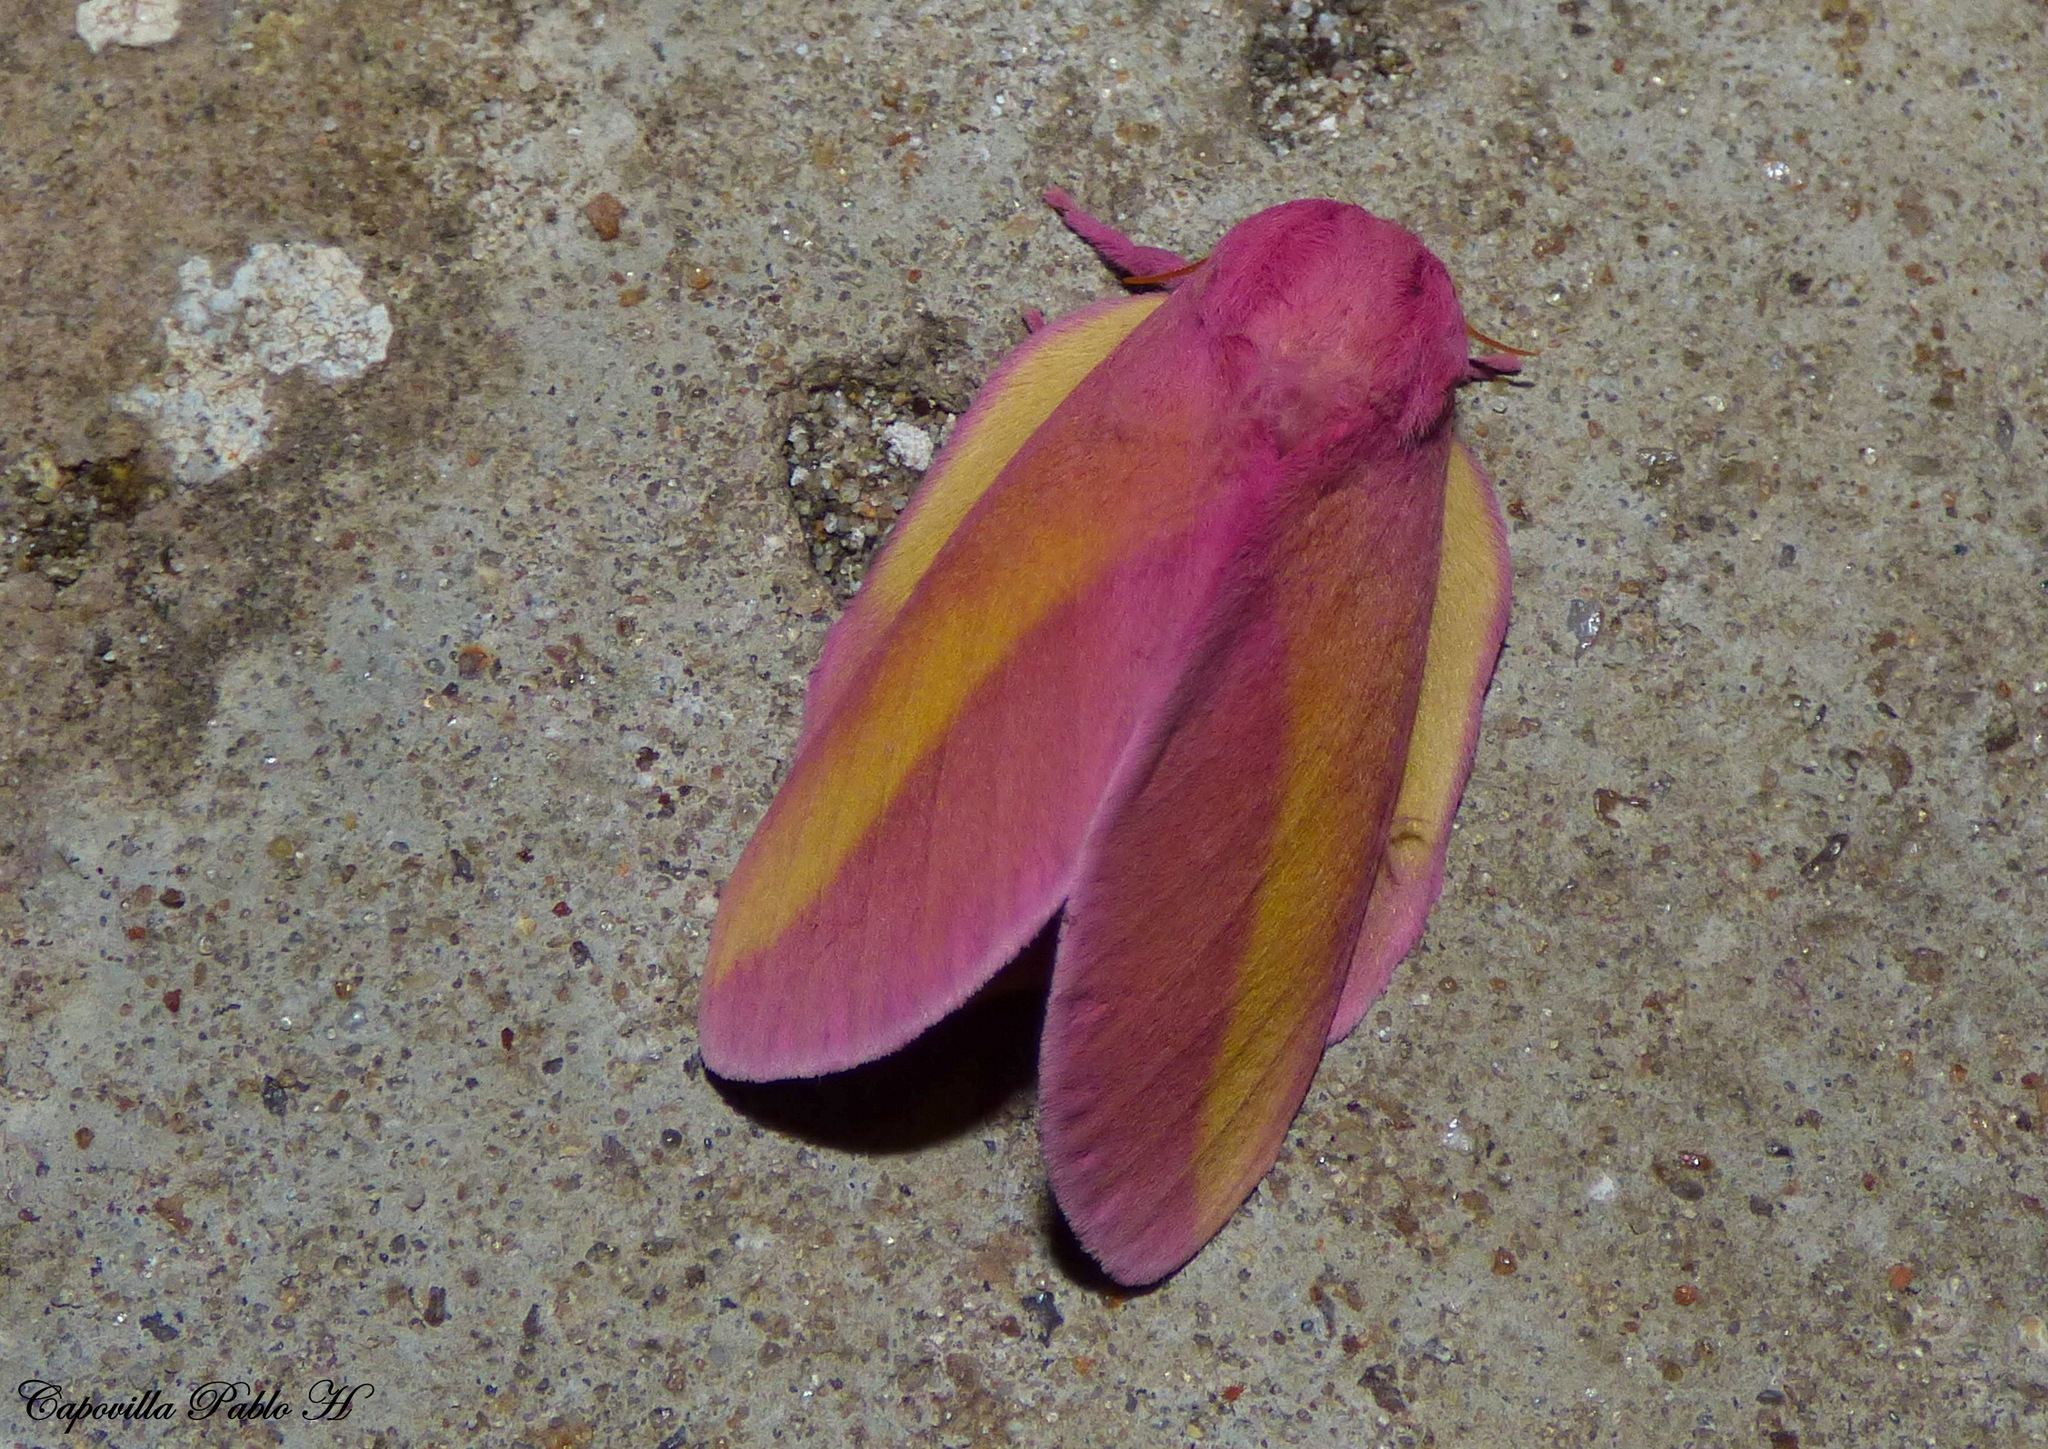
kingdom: Animalia
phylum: Arthropoda
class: Insecta
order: Lepidoptera
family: Saturniidae
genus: Psilopygida
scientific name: Psilopygida walkeri
